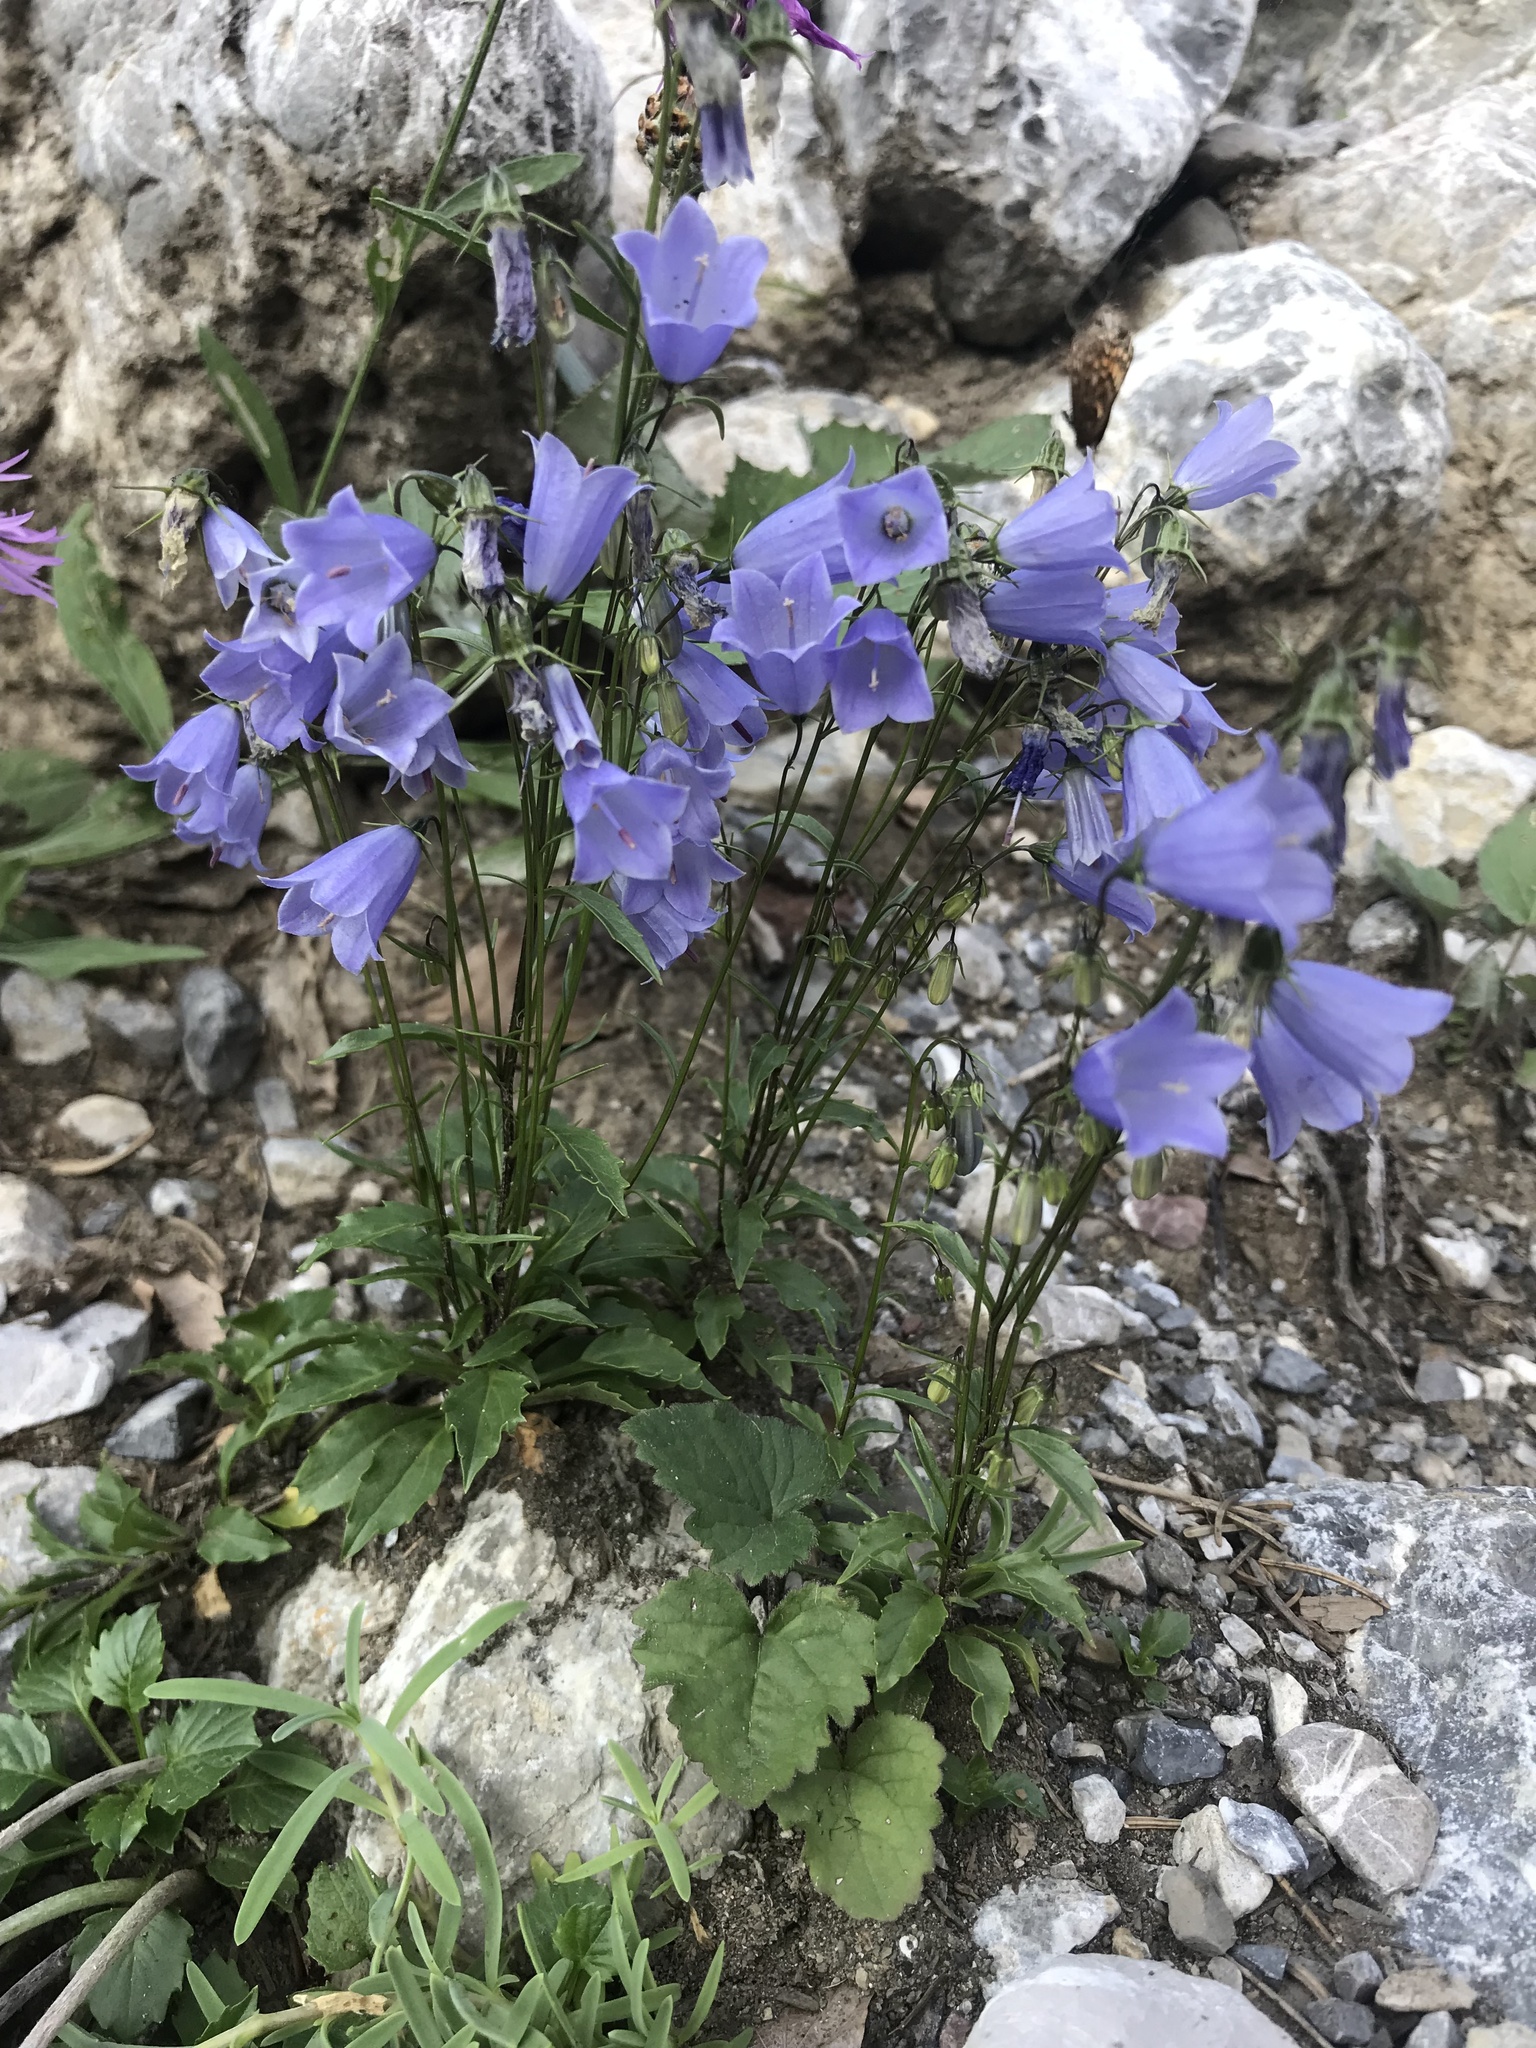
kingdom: Plantae
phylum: Tracheophyta
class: Magnoliopsida
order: Asterales
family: Campanulaceae
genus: Campanula
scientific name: Campanula cochleariifolia
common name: Fairies'-thimbles
